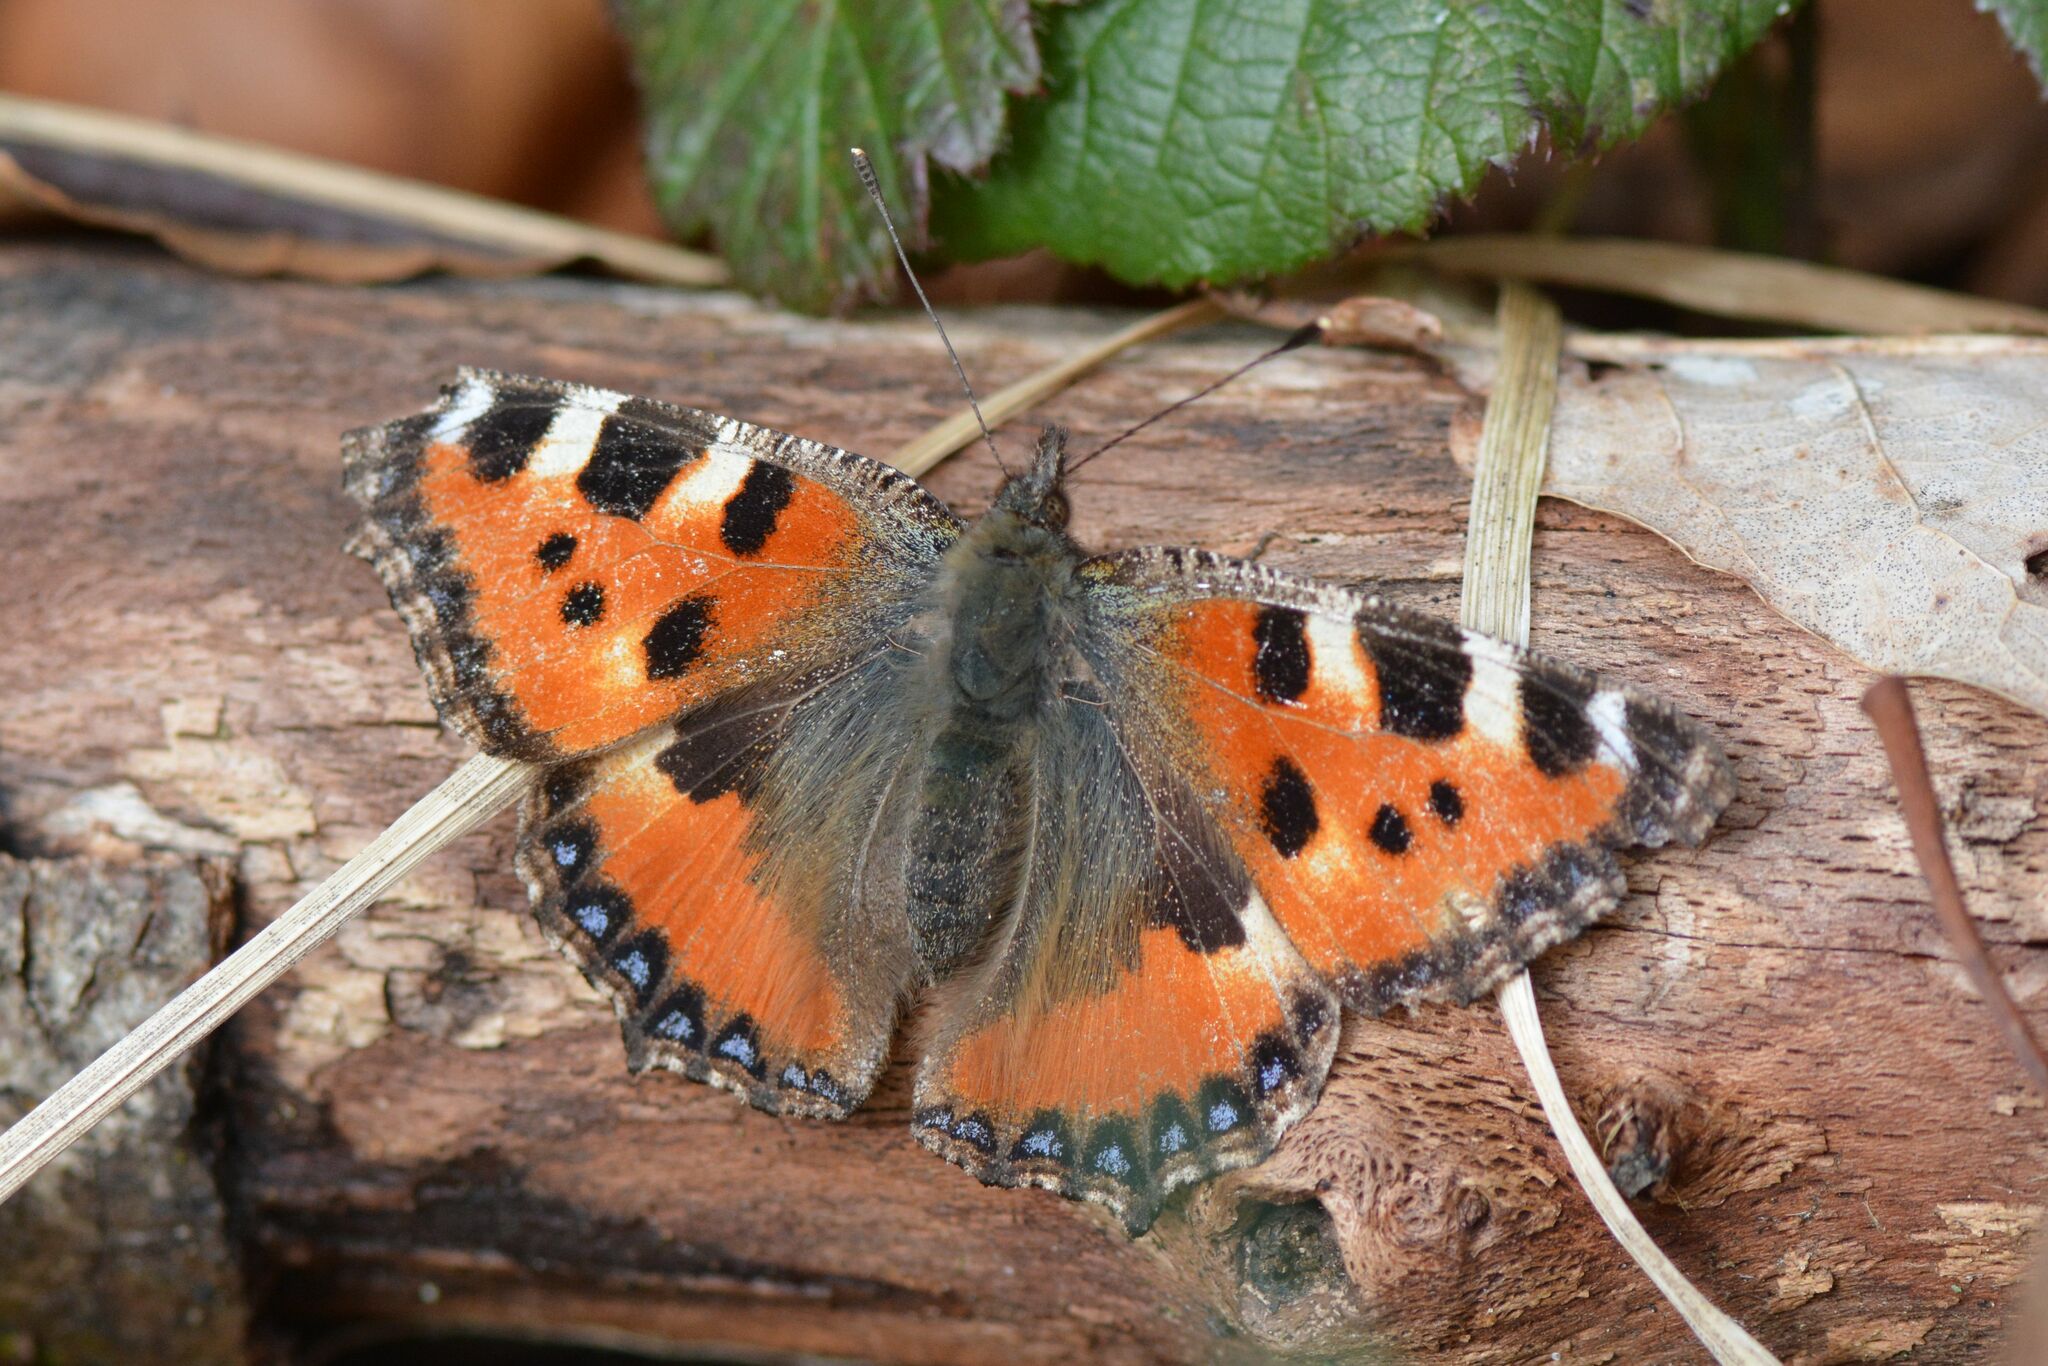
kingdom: Animalia
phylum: Arthropoda
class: Insecta
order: Lepidoptera
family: Nymphalidae
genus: Aglais
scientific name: Aglais urticae
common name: Small tortoiseshell
